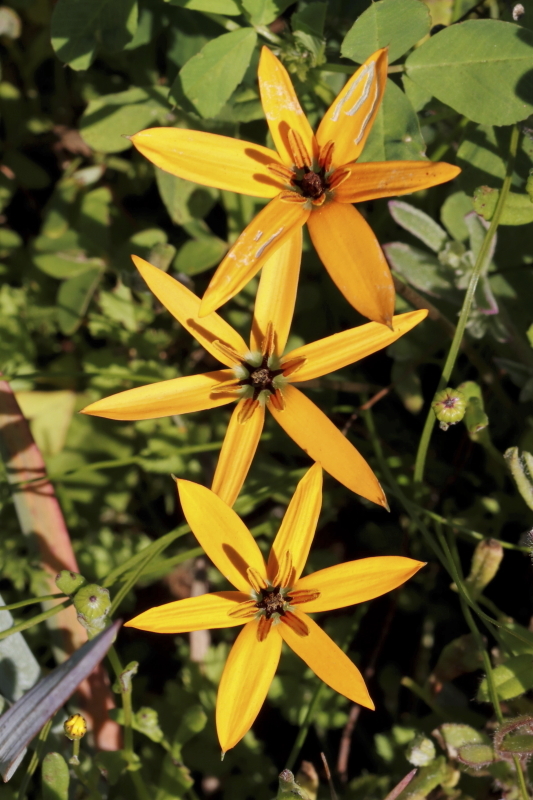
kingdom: Plantae
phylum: Tracheophyta
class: Liliopsida
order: Asparagales
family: Hypoxidaceae
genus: Pauridia
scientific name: Pauridia linearis
